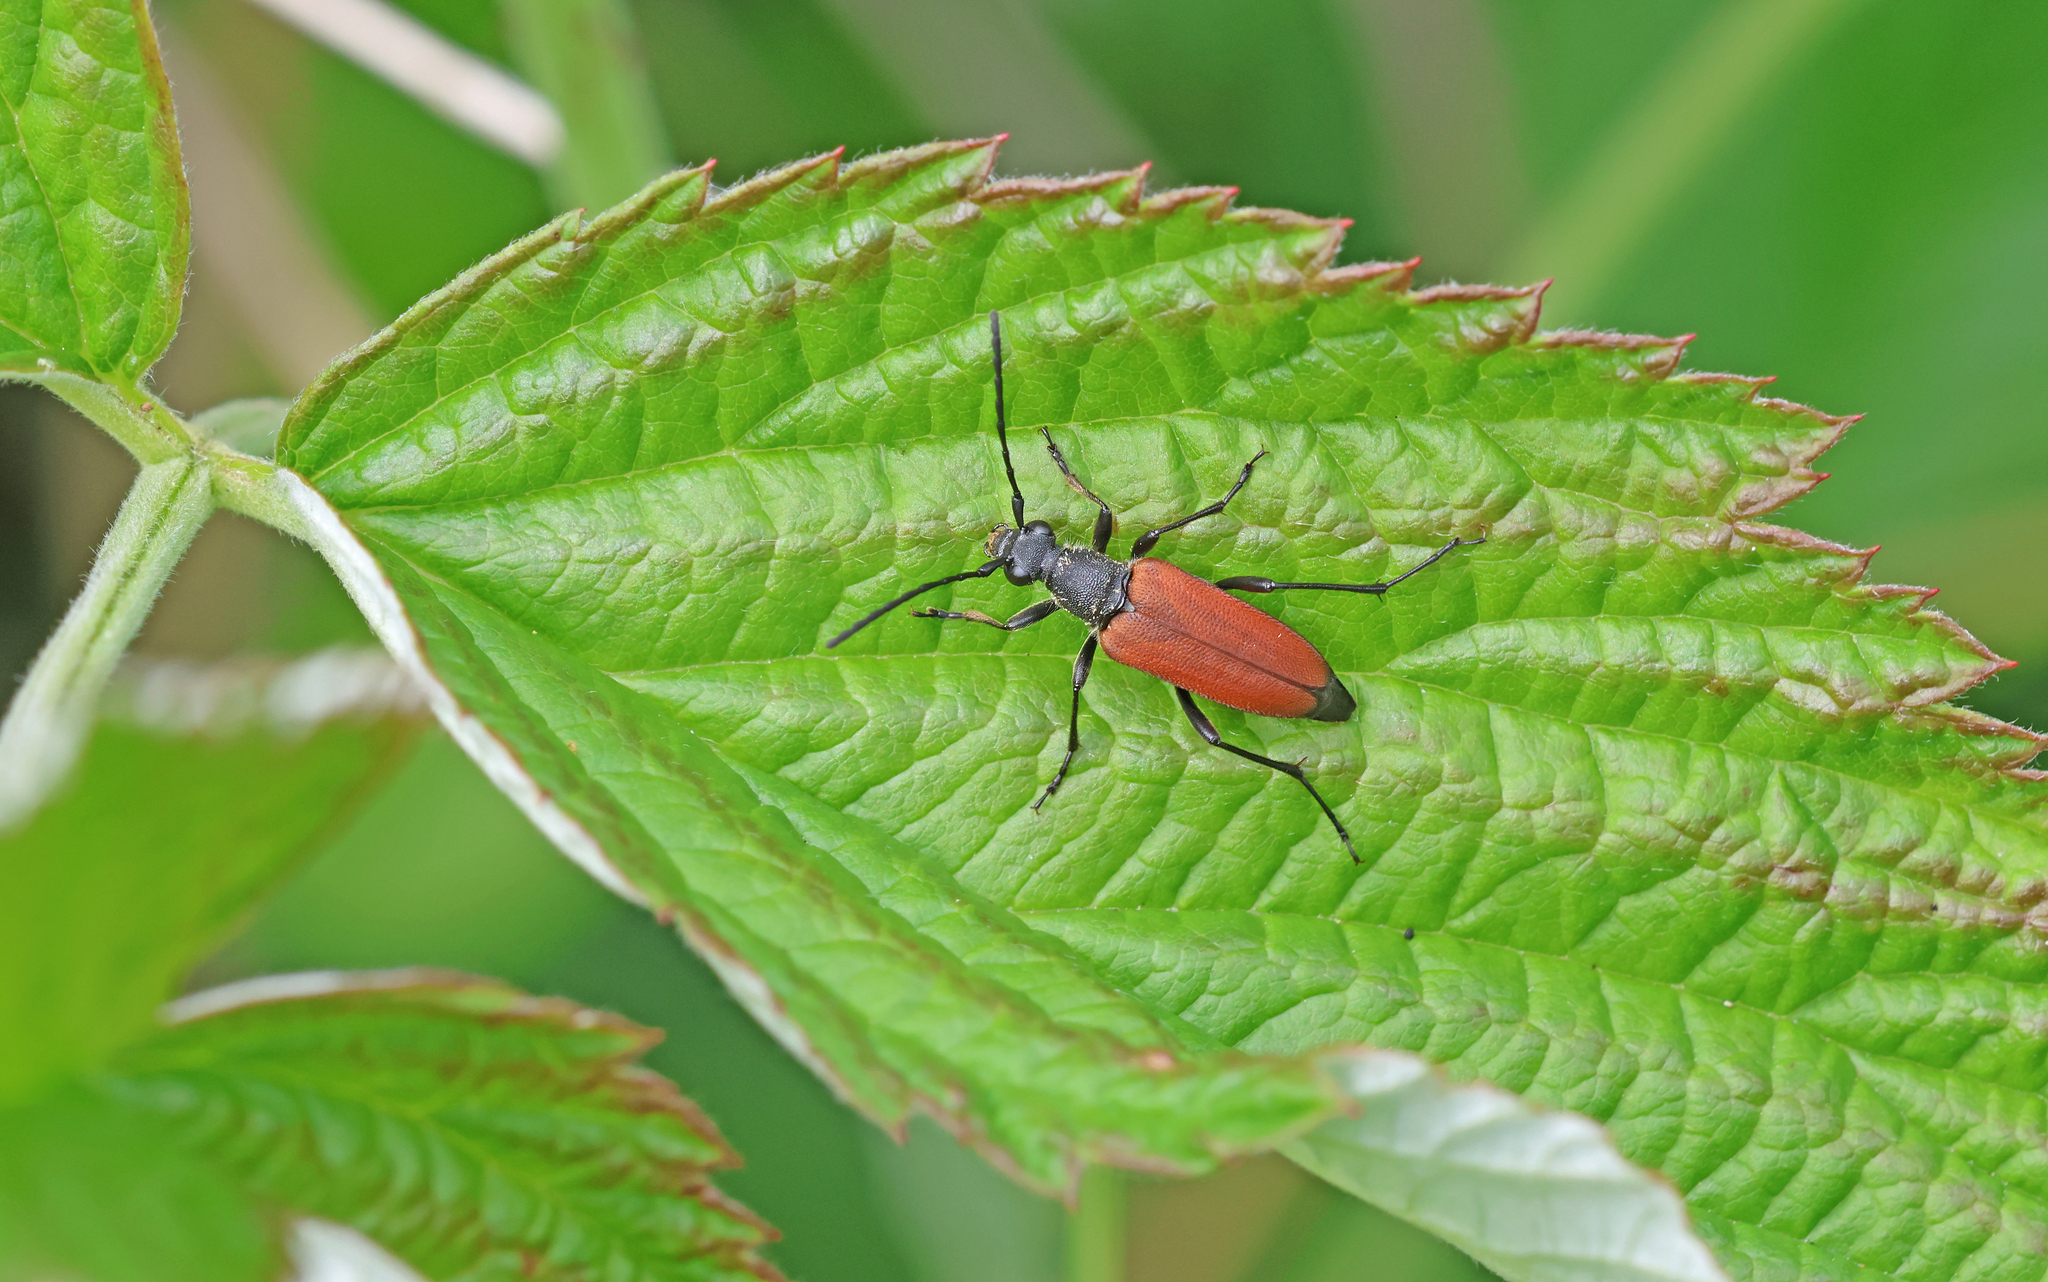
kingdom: Animalia
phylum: Arthropoda
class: Insecta
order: Coleoptera
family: Cerambycidae
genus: Anastrangalia
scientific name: Anastrangalia sanguinolenta
